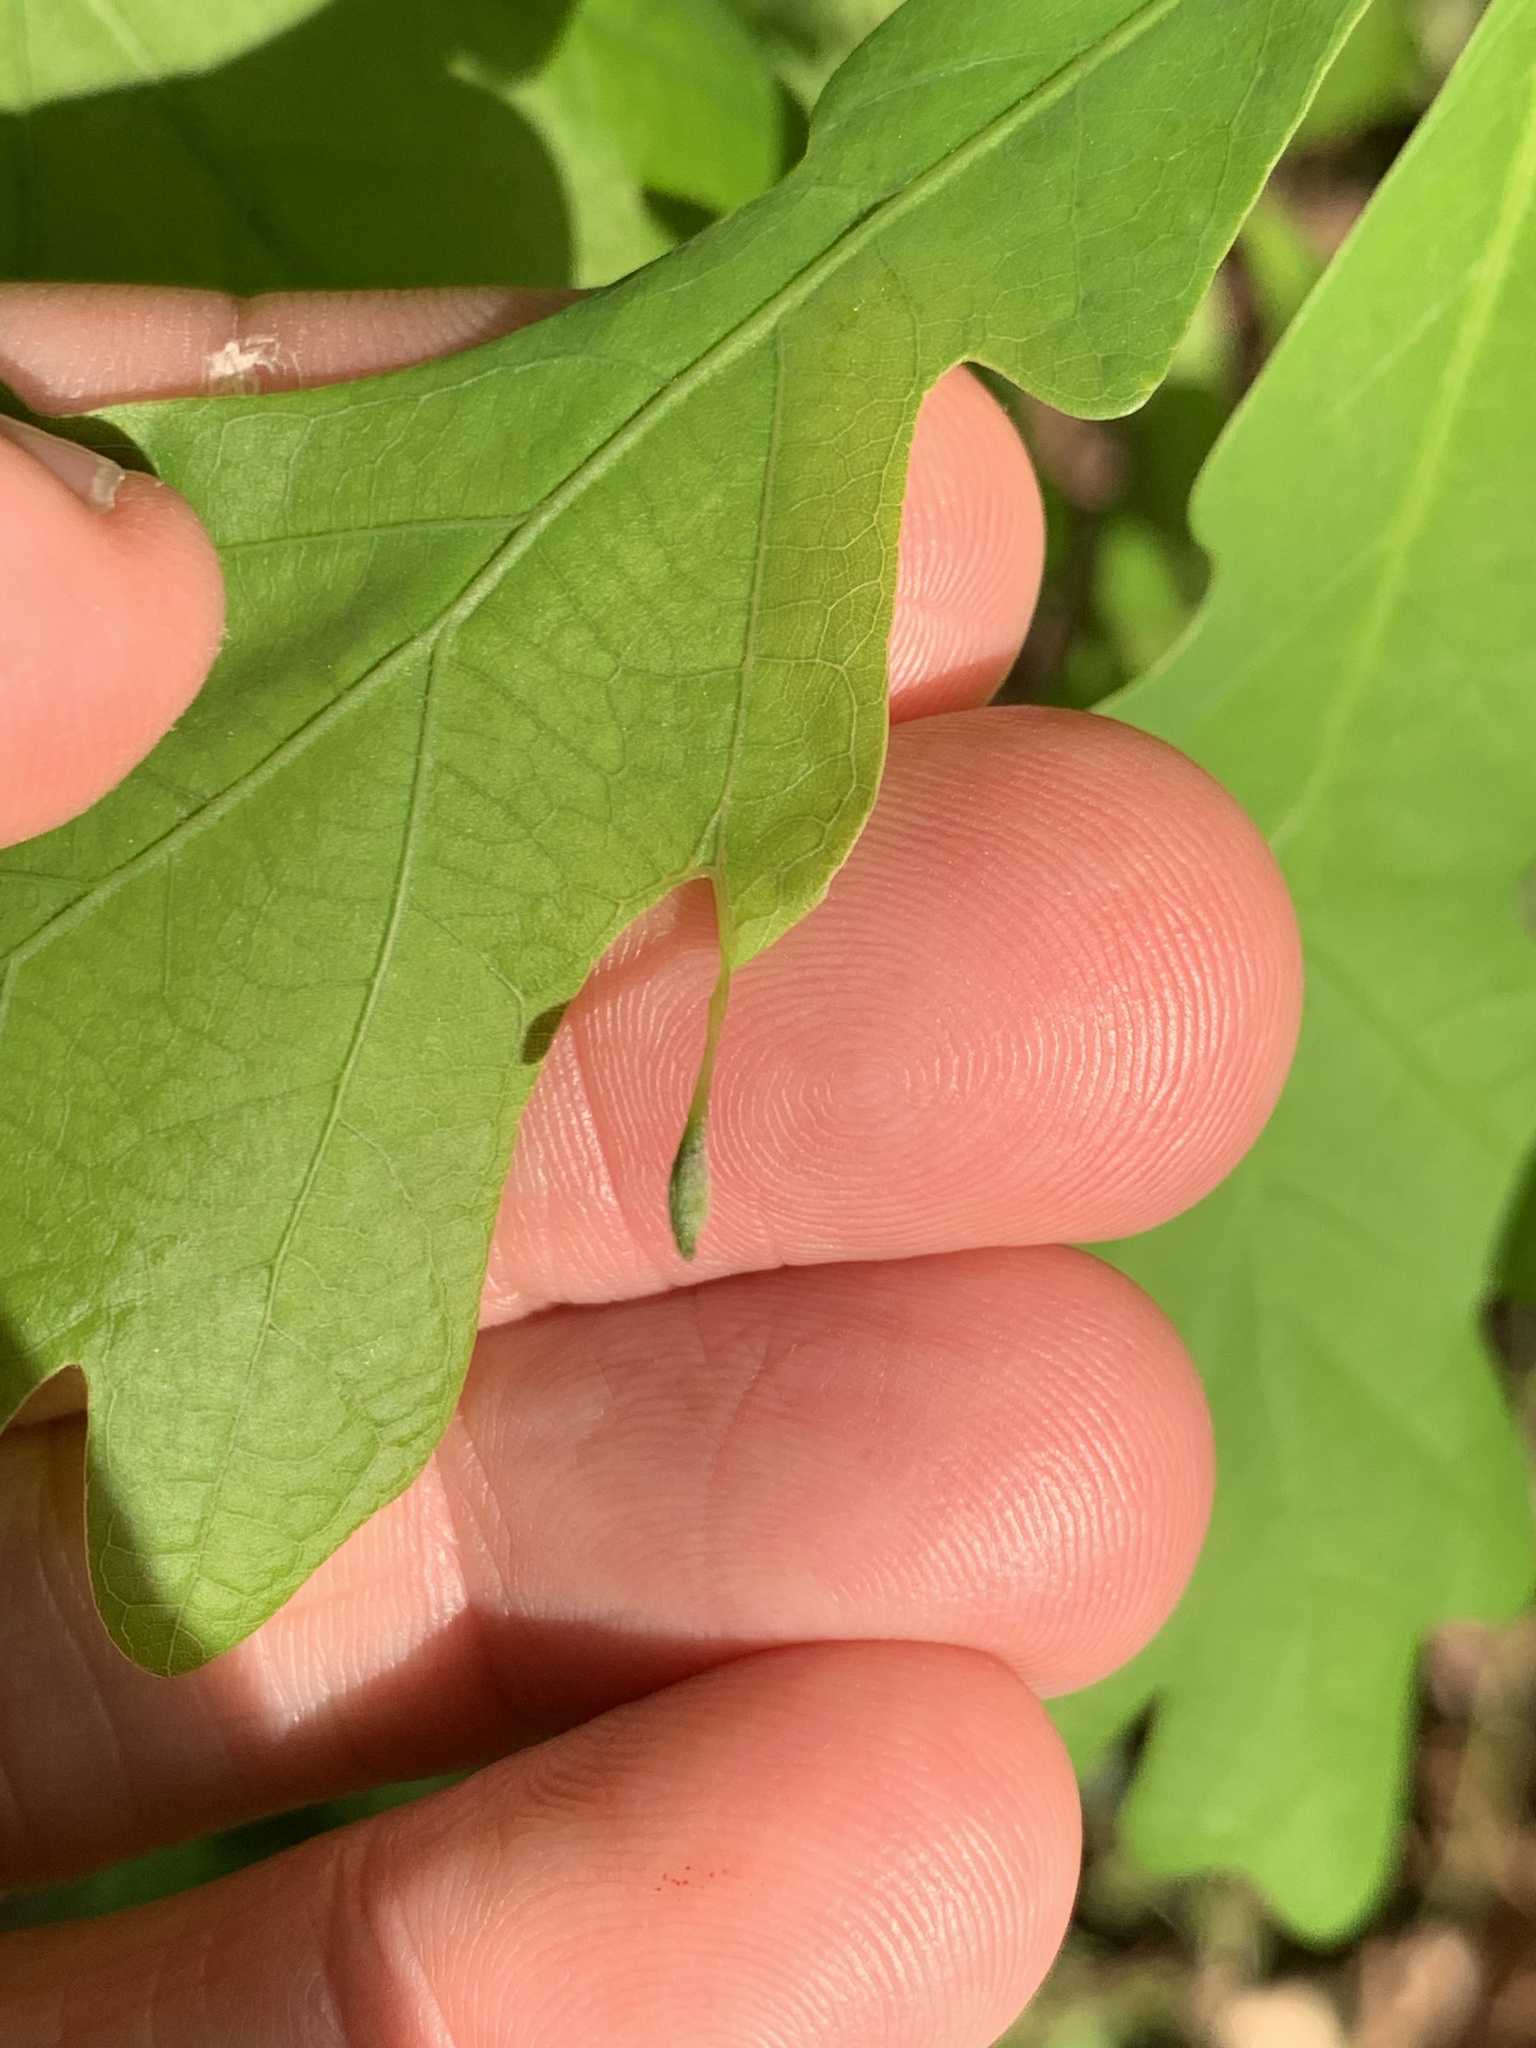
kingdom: Animalia
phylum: Arthropoda
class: Insecta
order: Hymenoptera
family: Cynipidae
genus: Andricus
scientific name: Andricus
